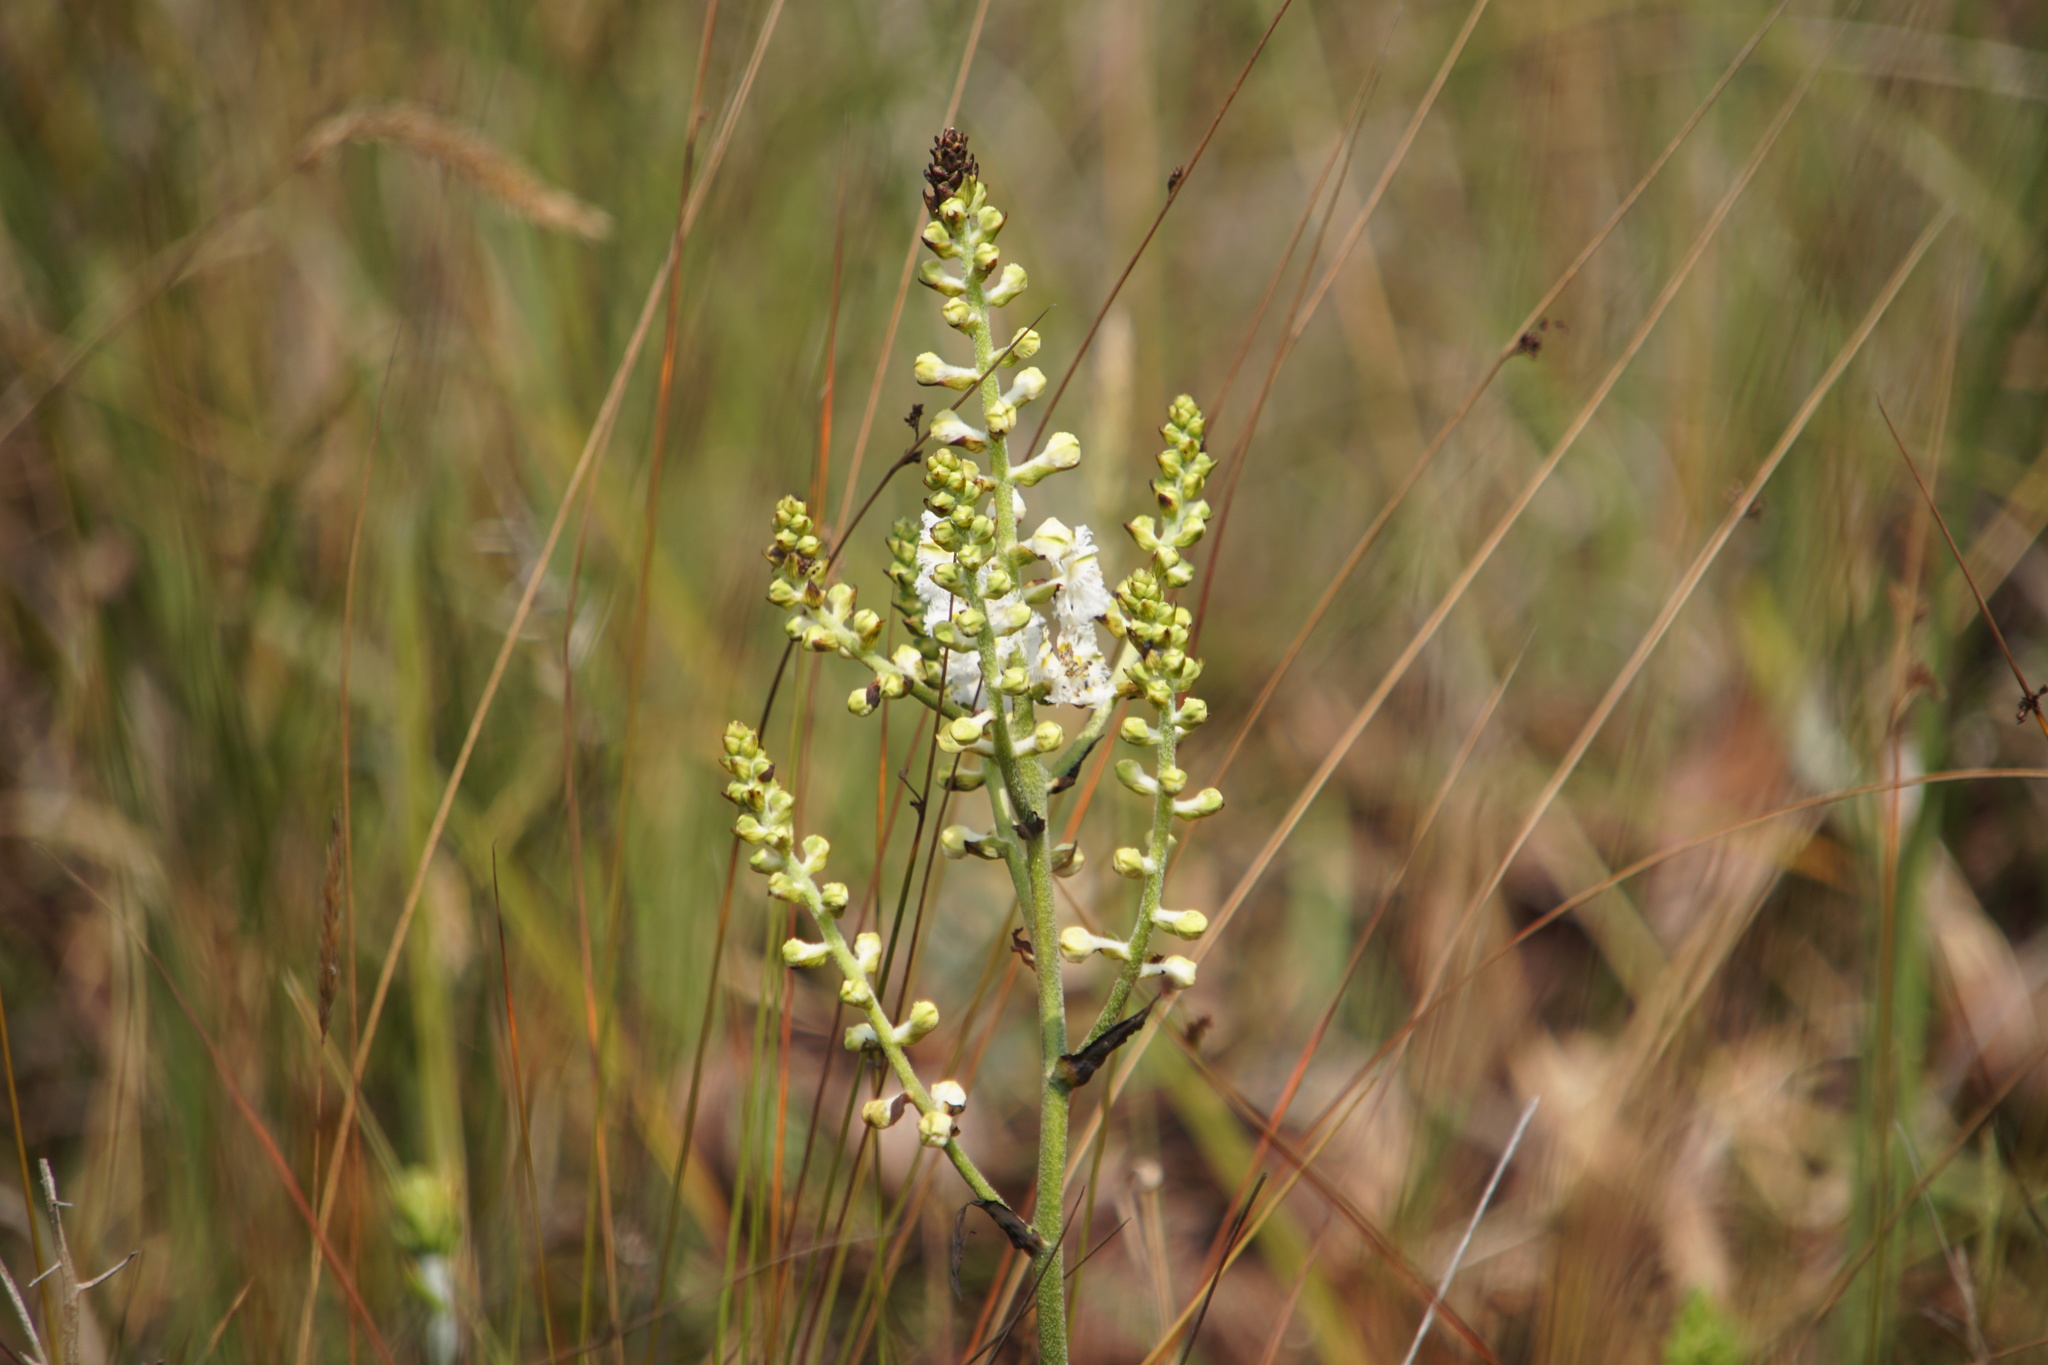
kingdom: Plantae
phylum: Tracheophyta
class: Liliopsida
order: Liliales
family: Melanthiaceae
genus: Veratrum
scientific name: Veratrum fimbriatum
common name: Fringe false hellobore
